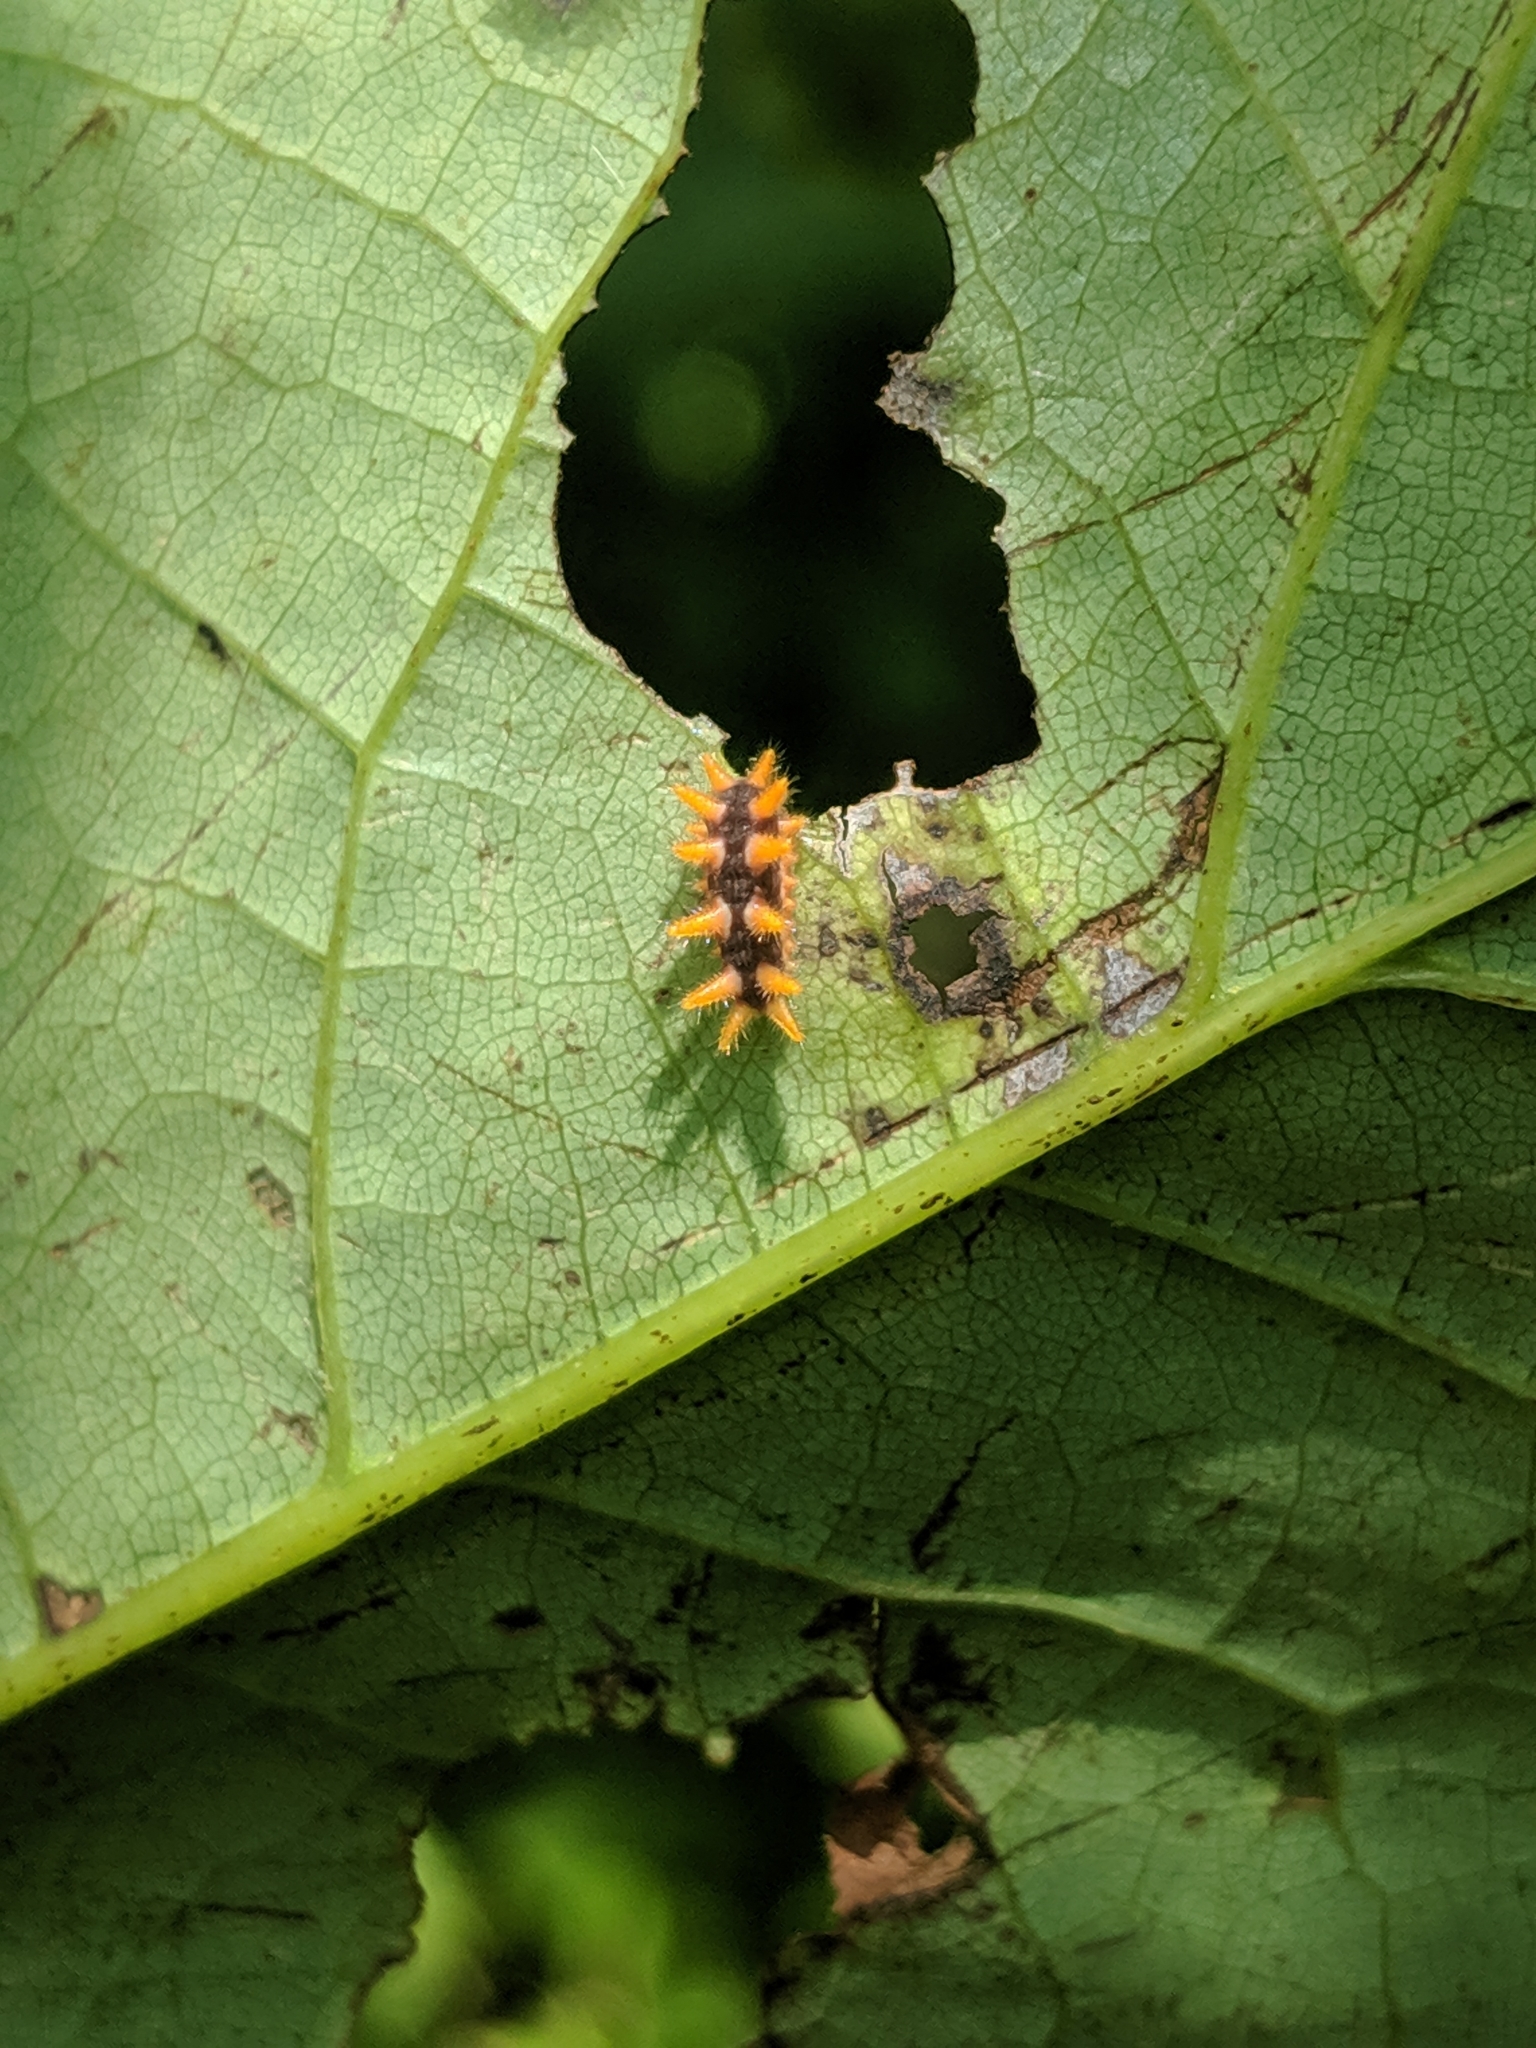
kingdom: Animalia
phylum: Arthropoda
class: Insecta
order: Lepidoptera
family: Limacodidae
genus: Parasa
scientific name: Parasa indetermina
